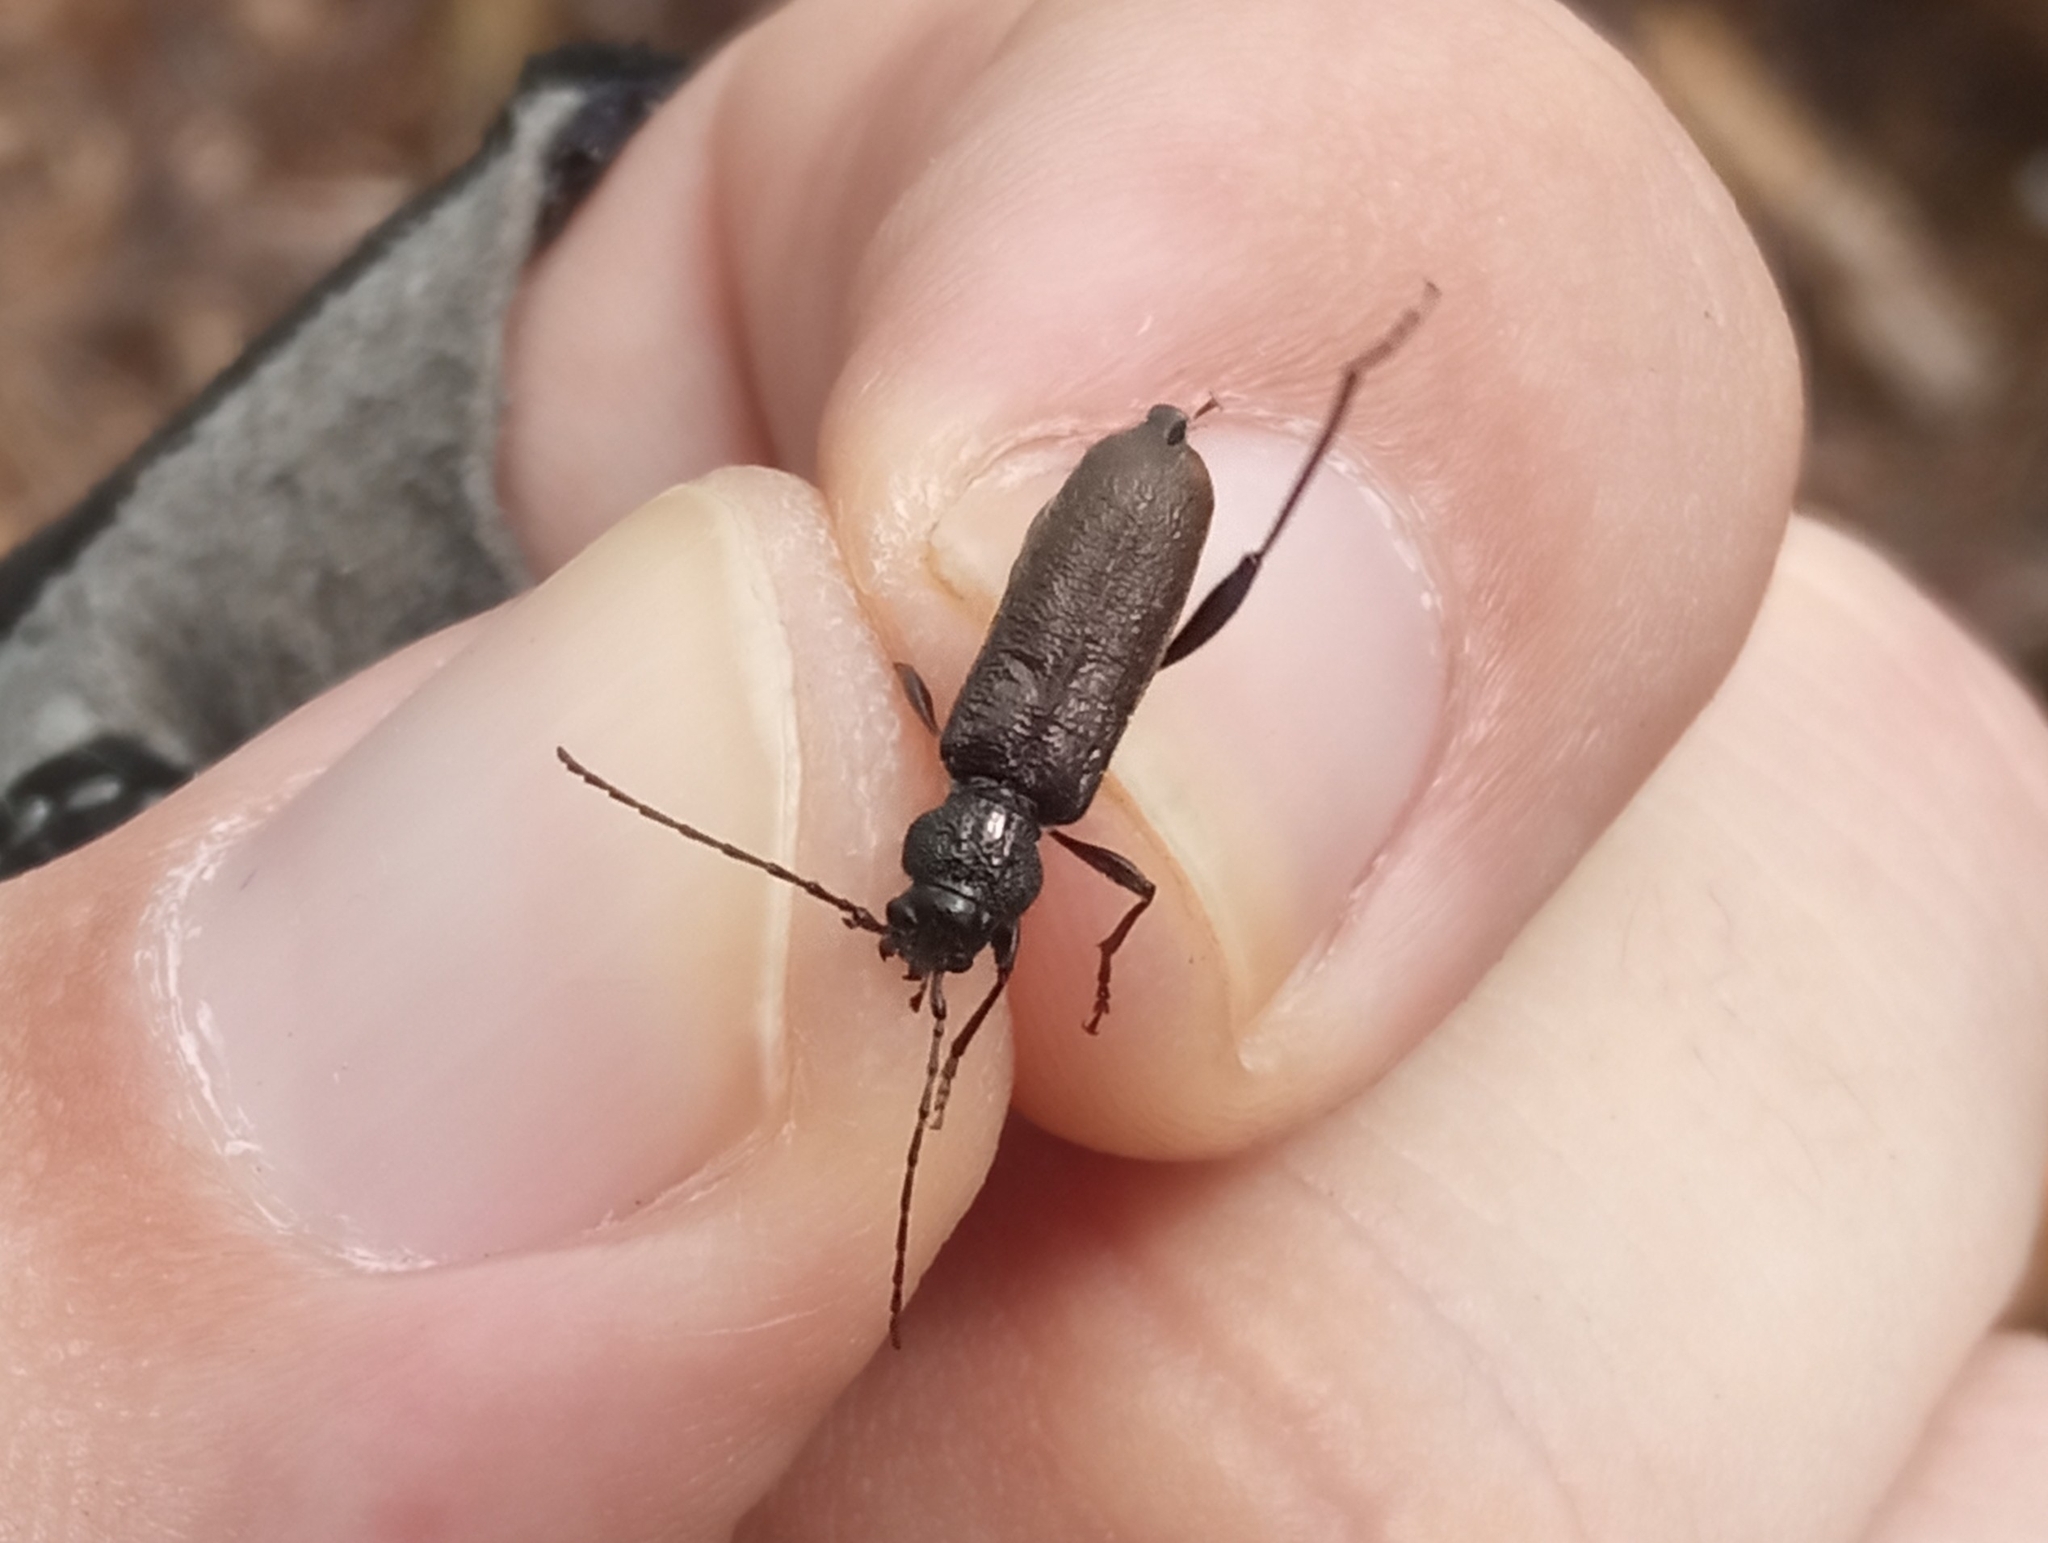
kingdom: Animalia
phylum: Arthropoda
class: Insecta
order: Coleoptera
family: Cerambycidae
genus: Callidium
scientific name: Callidium coriaceum
